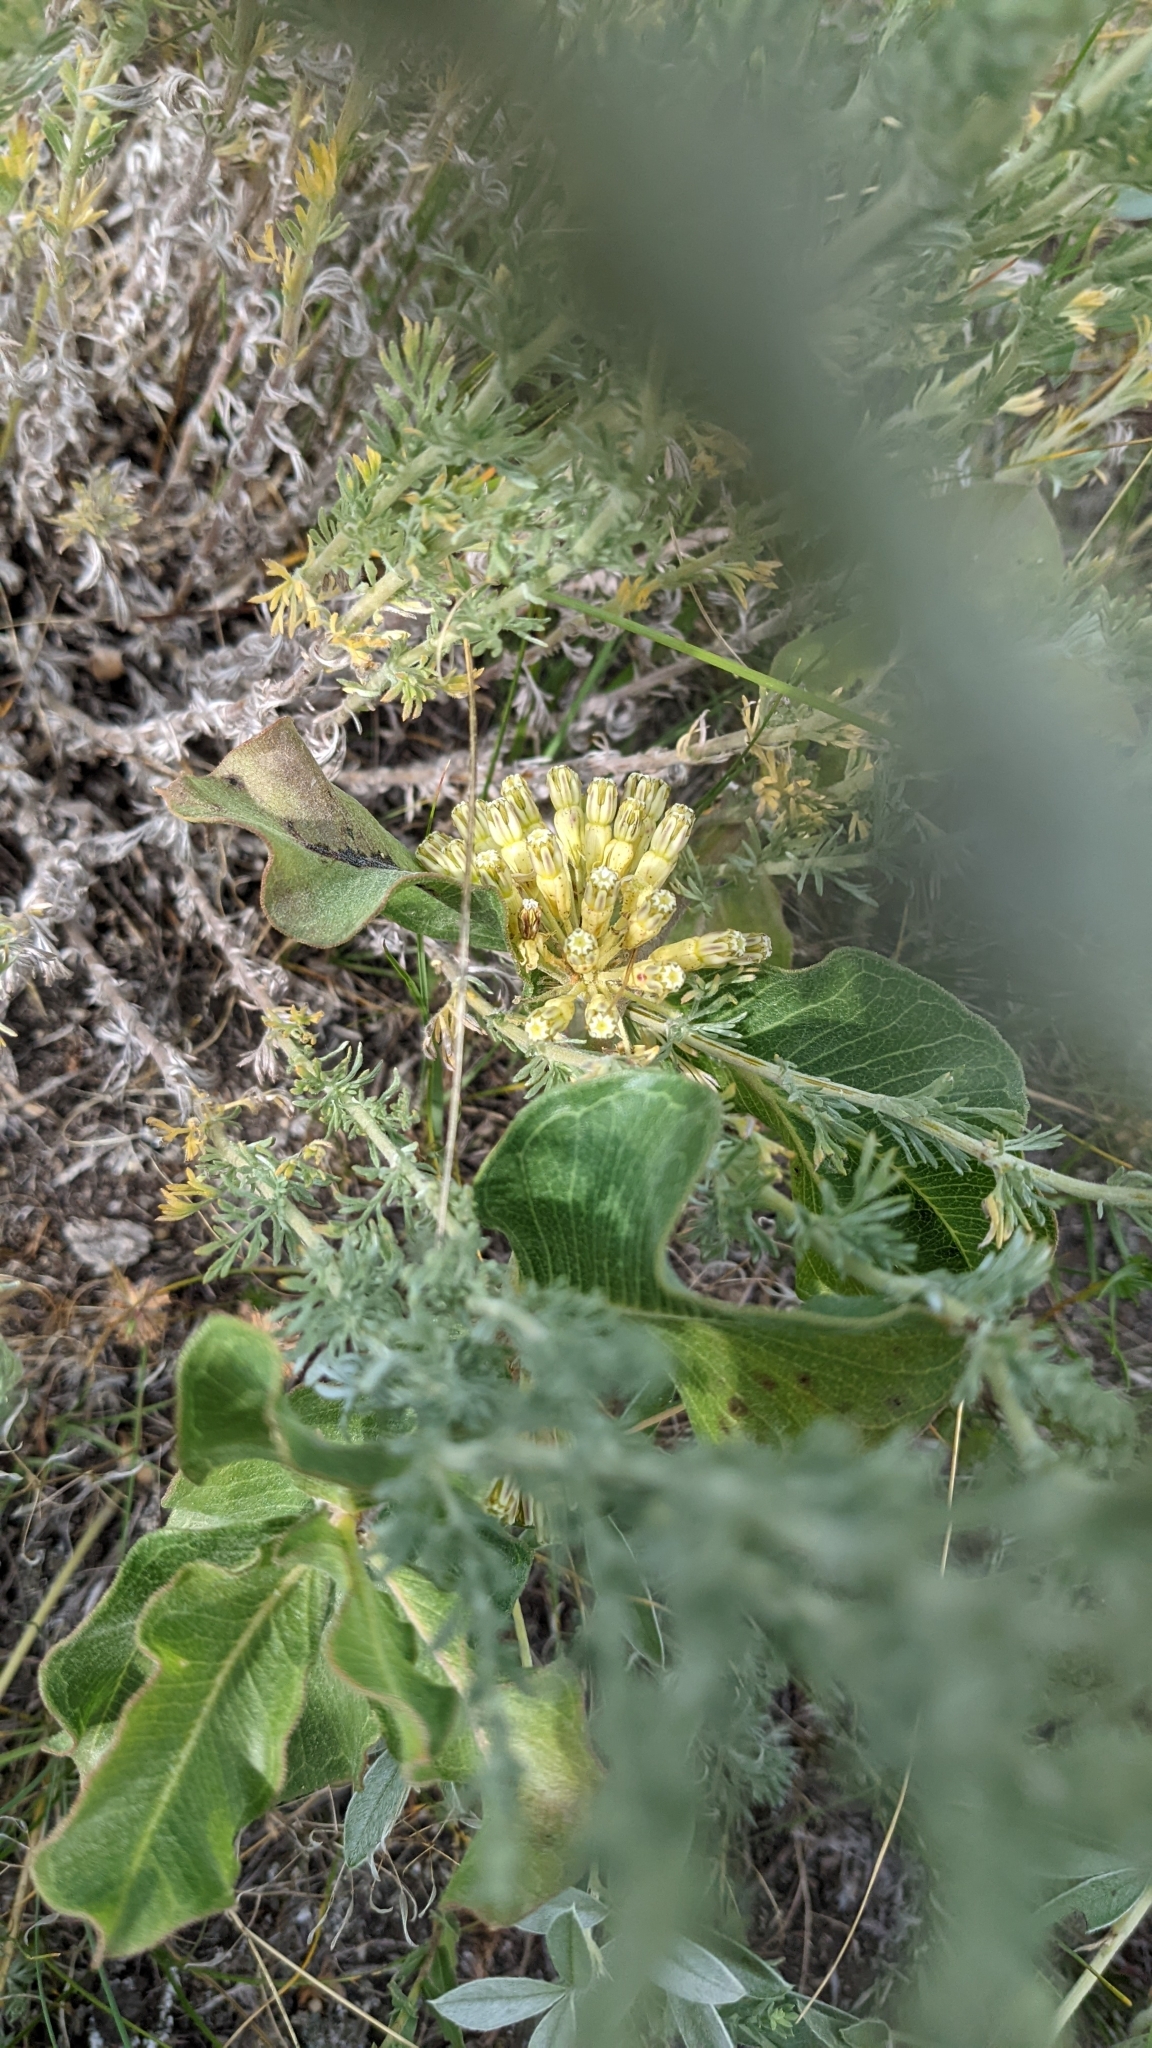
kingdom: Plantae
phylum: Tracheophyta
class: Magnoliopsida
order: Gentianales
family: Apocynaceae
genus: Asclepias
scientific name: Asclepias viridiflora
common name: Green comet milkweed
